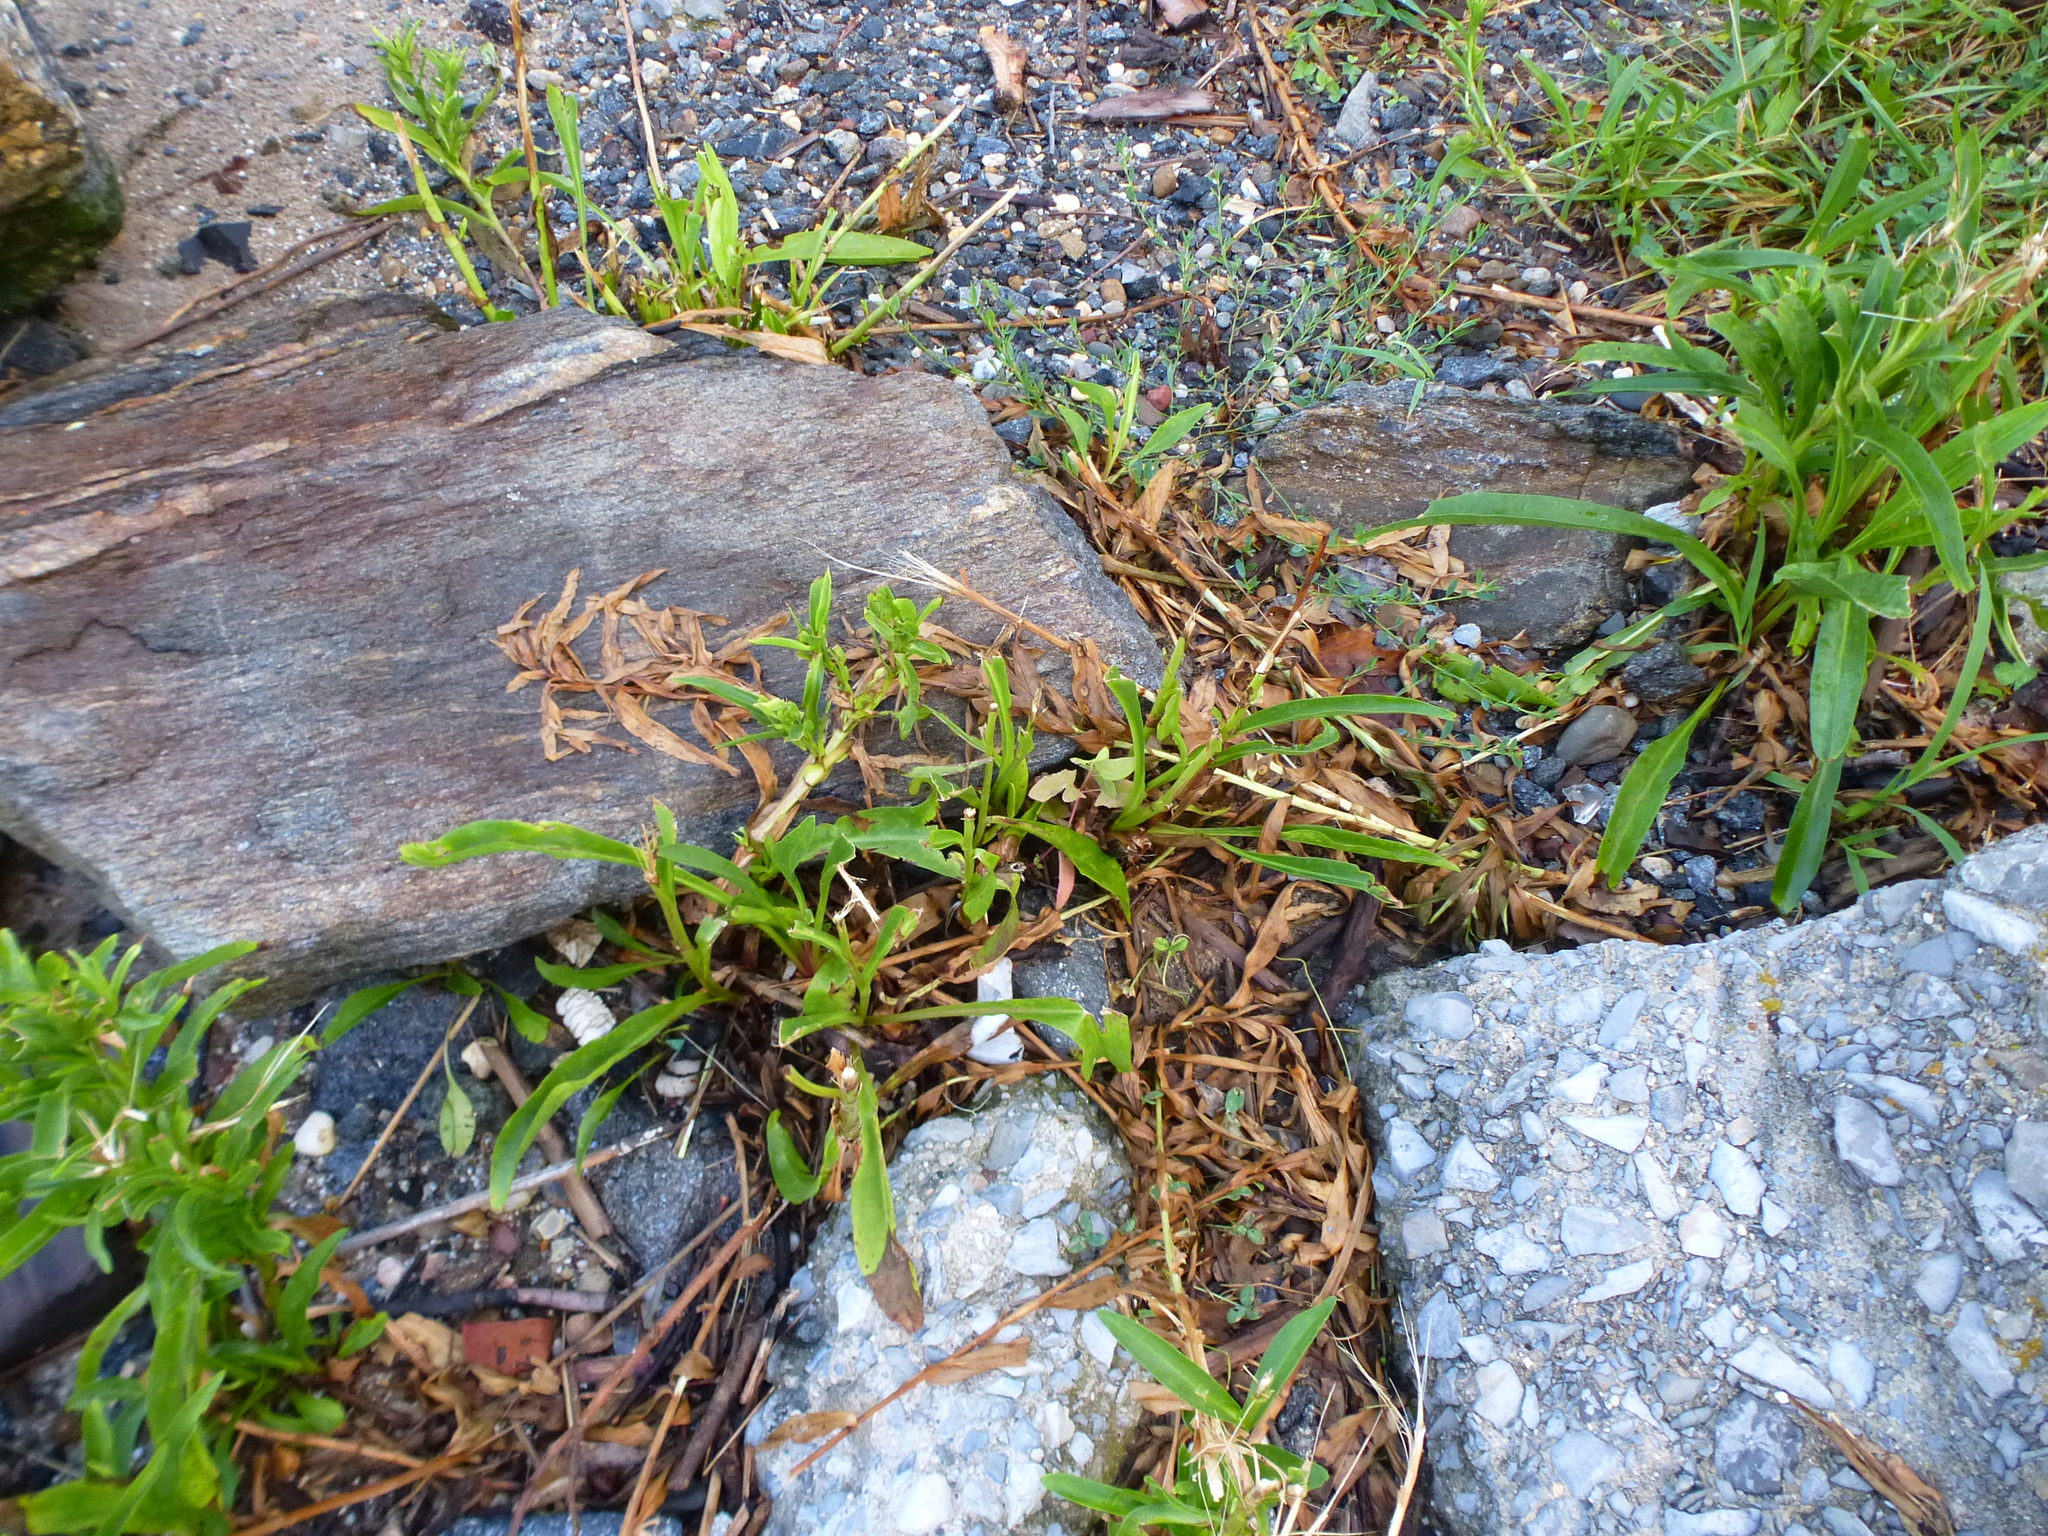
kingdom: Plantae
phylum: Tracheophyta
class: Magnoliopsida
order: Asterales
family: Asteraceae
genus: Solidago
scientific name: Solidago sempervirens
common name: Salt-marsh goldenrod
